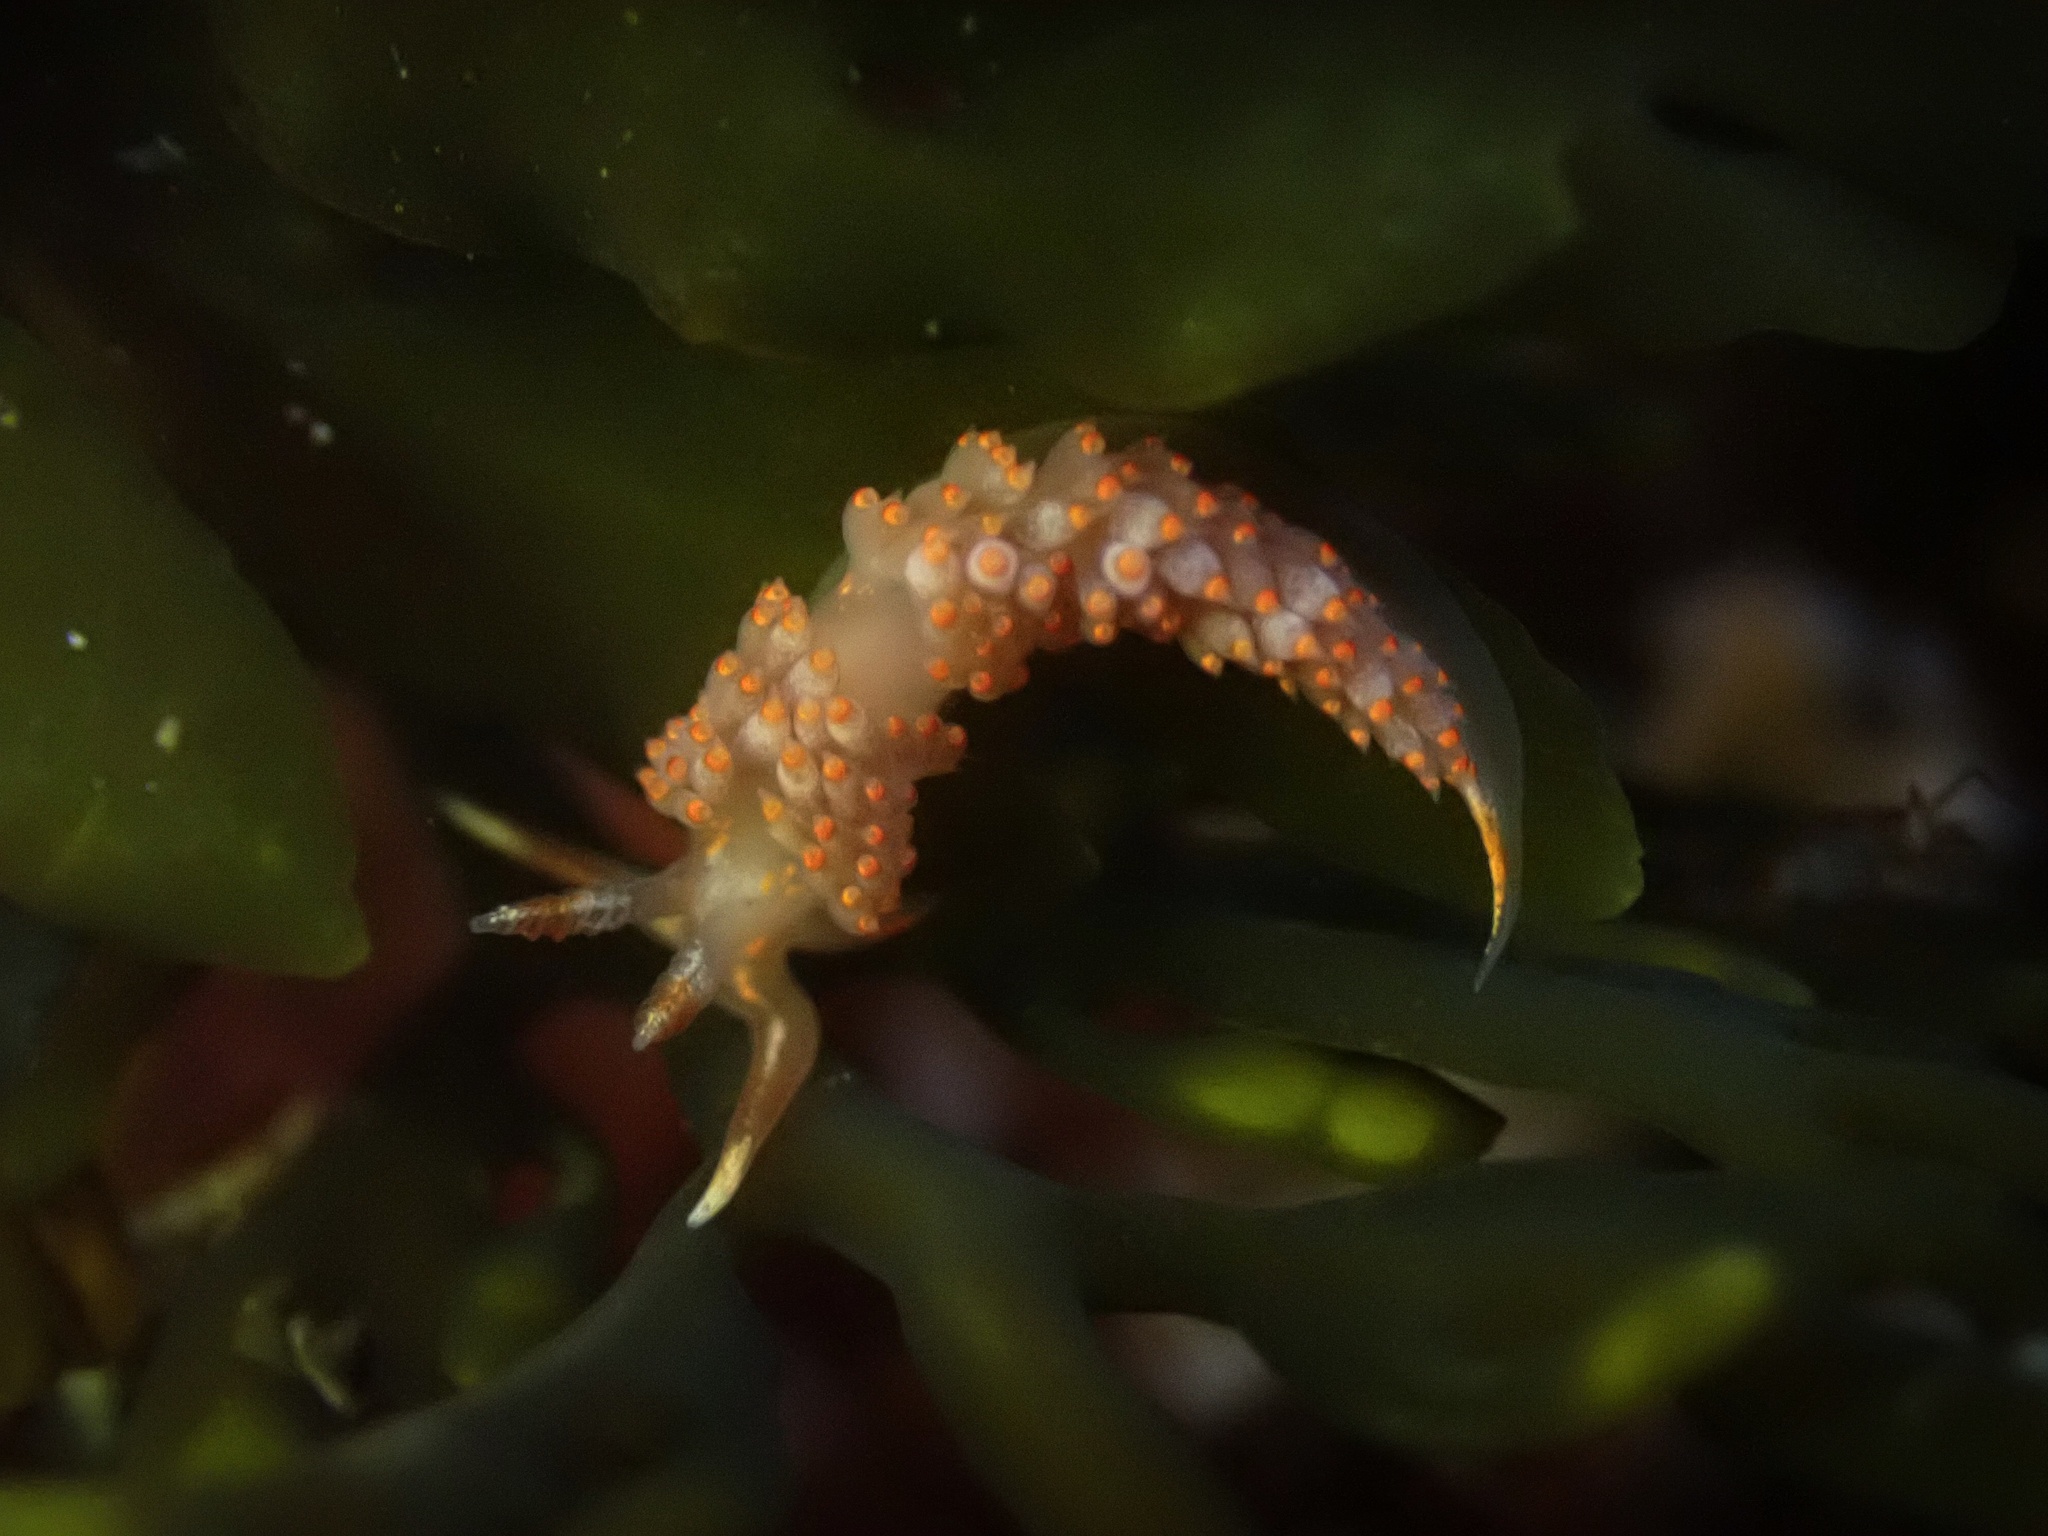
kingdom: Animalia
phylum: Mollusca
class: Gastropoda
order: Nudibranchia
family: Facelinidae
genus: Austraeolis
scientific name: Austraeolis stearnsi
